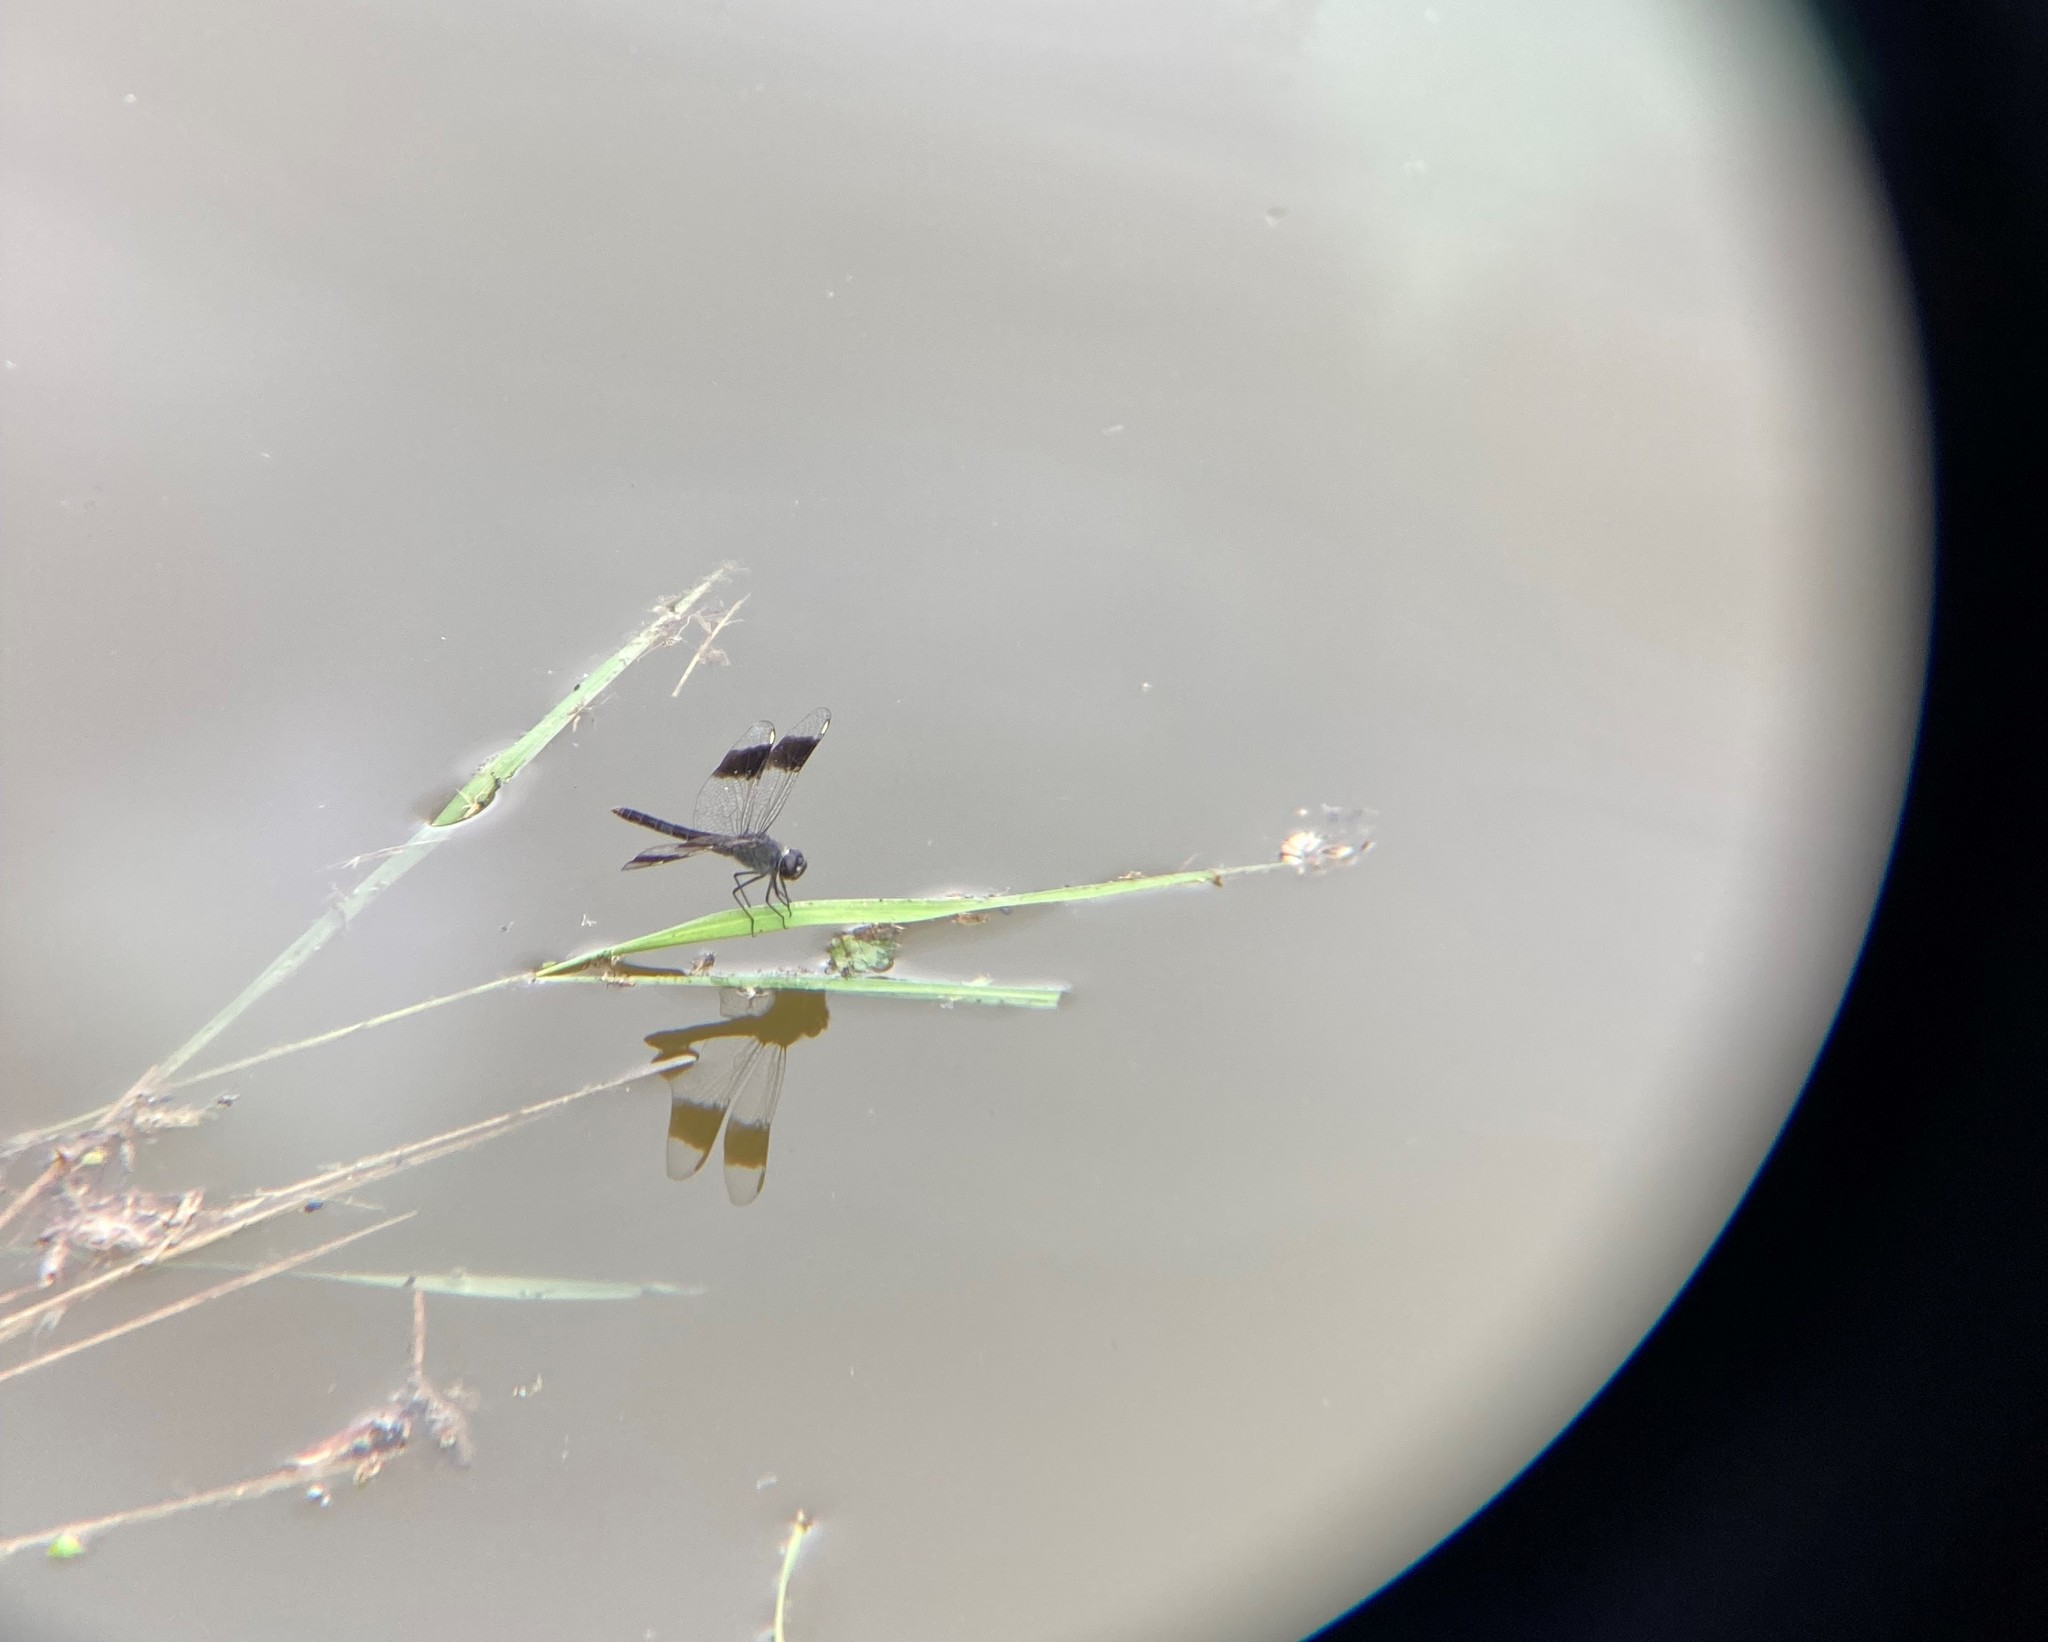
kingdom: Animalia
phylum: Arthropoda
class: Insecta
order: Odonata
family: Libellulidae
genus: Brachythemis
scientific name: Brachythemis leucosticta
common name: Banded groundling
